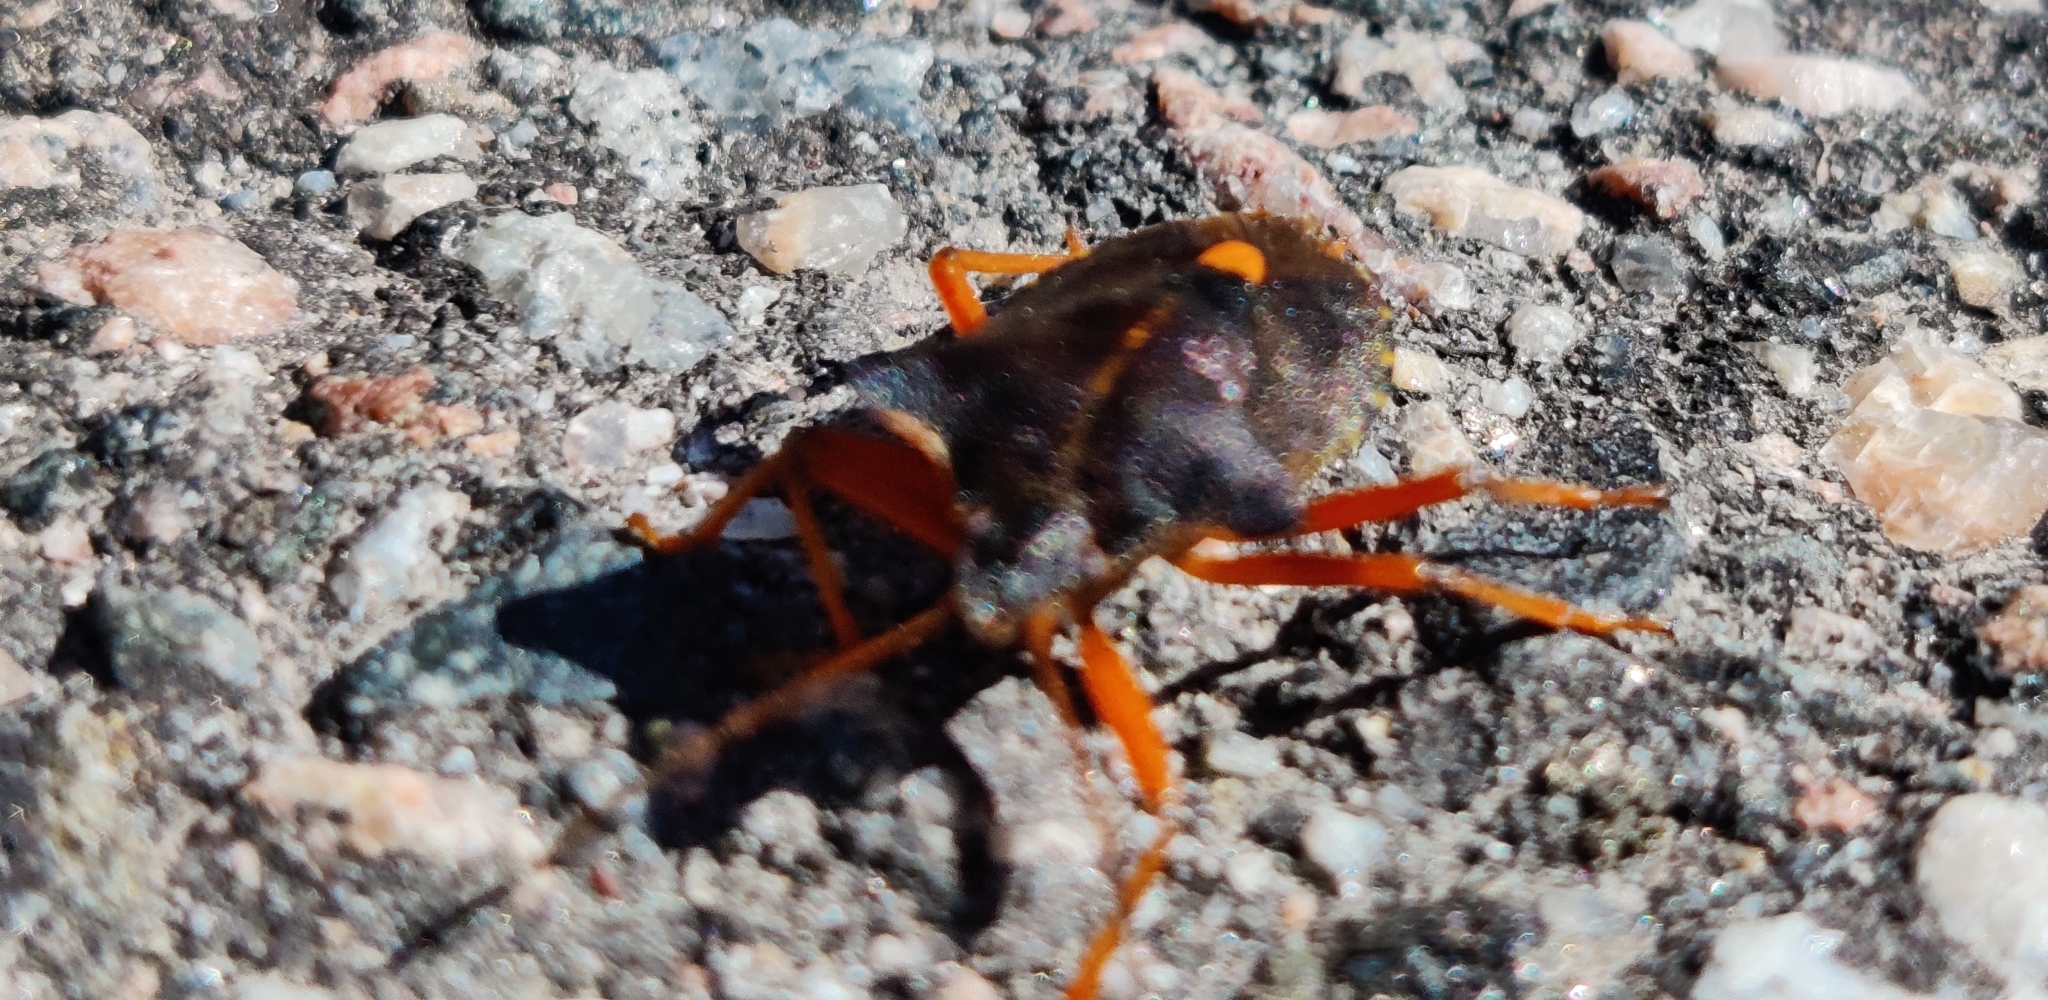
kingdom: Animalia
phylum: Arthropoda
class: Insecta
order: Hemiptera
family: Pentatomidae
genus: Pentatoma
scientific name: Pentatoma rufipes
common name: Forest bug
